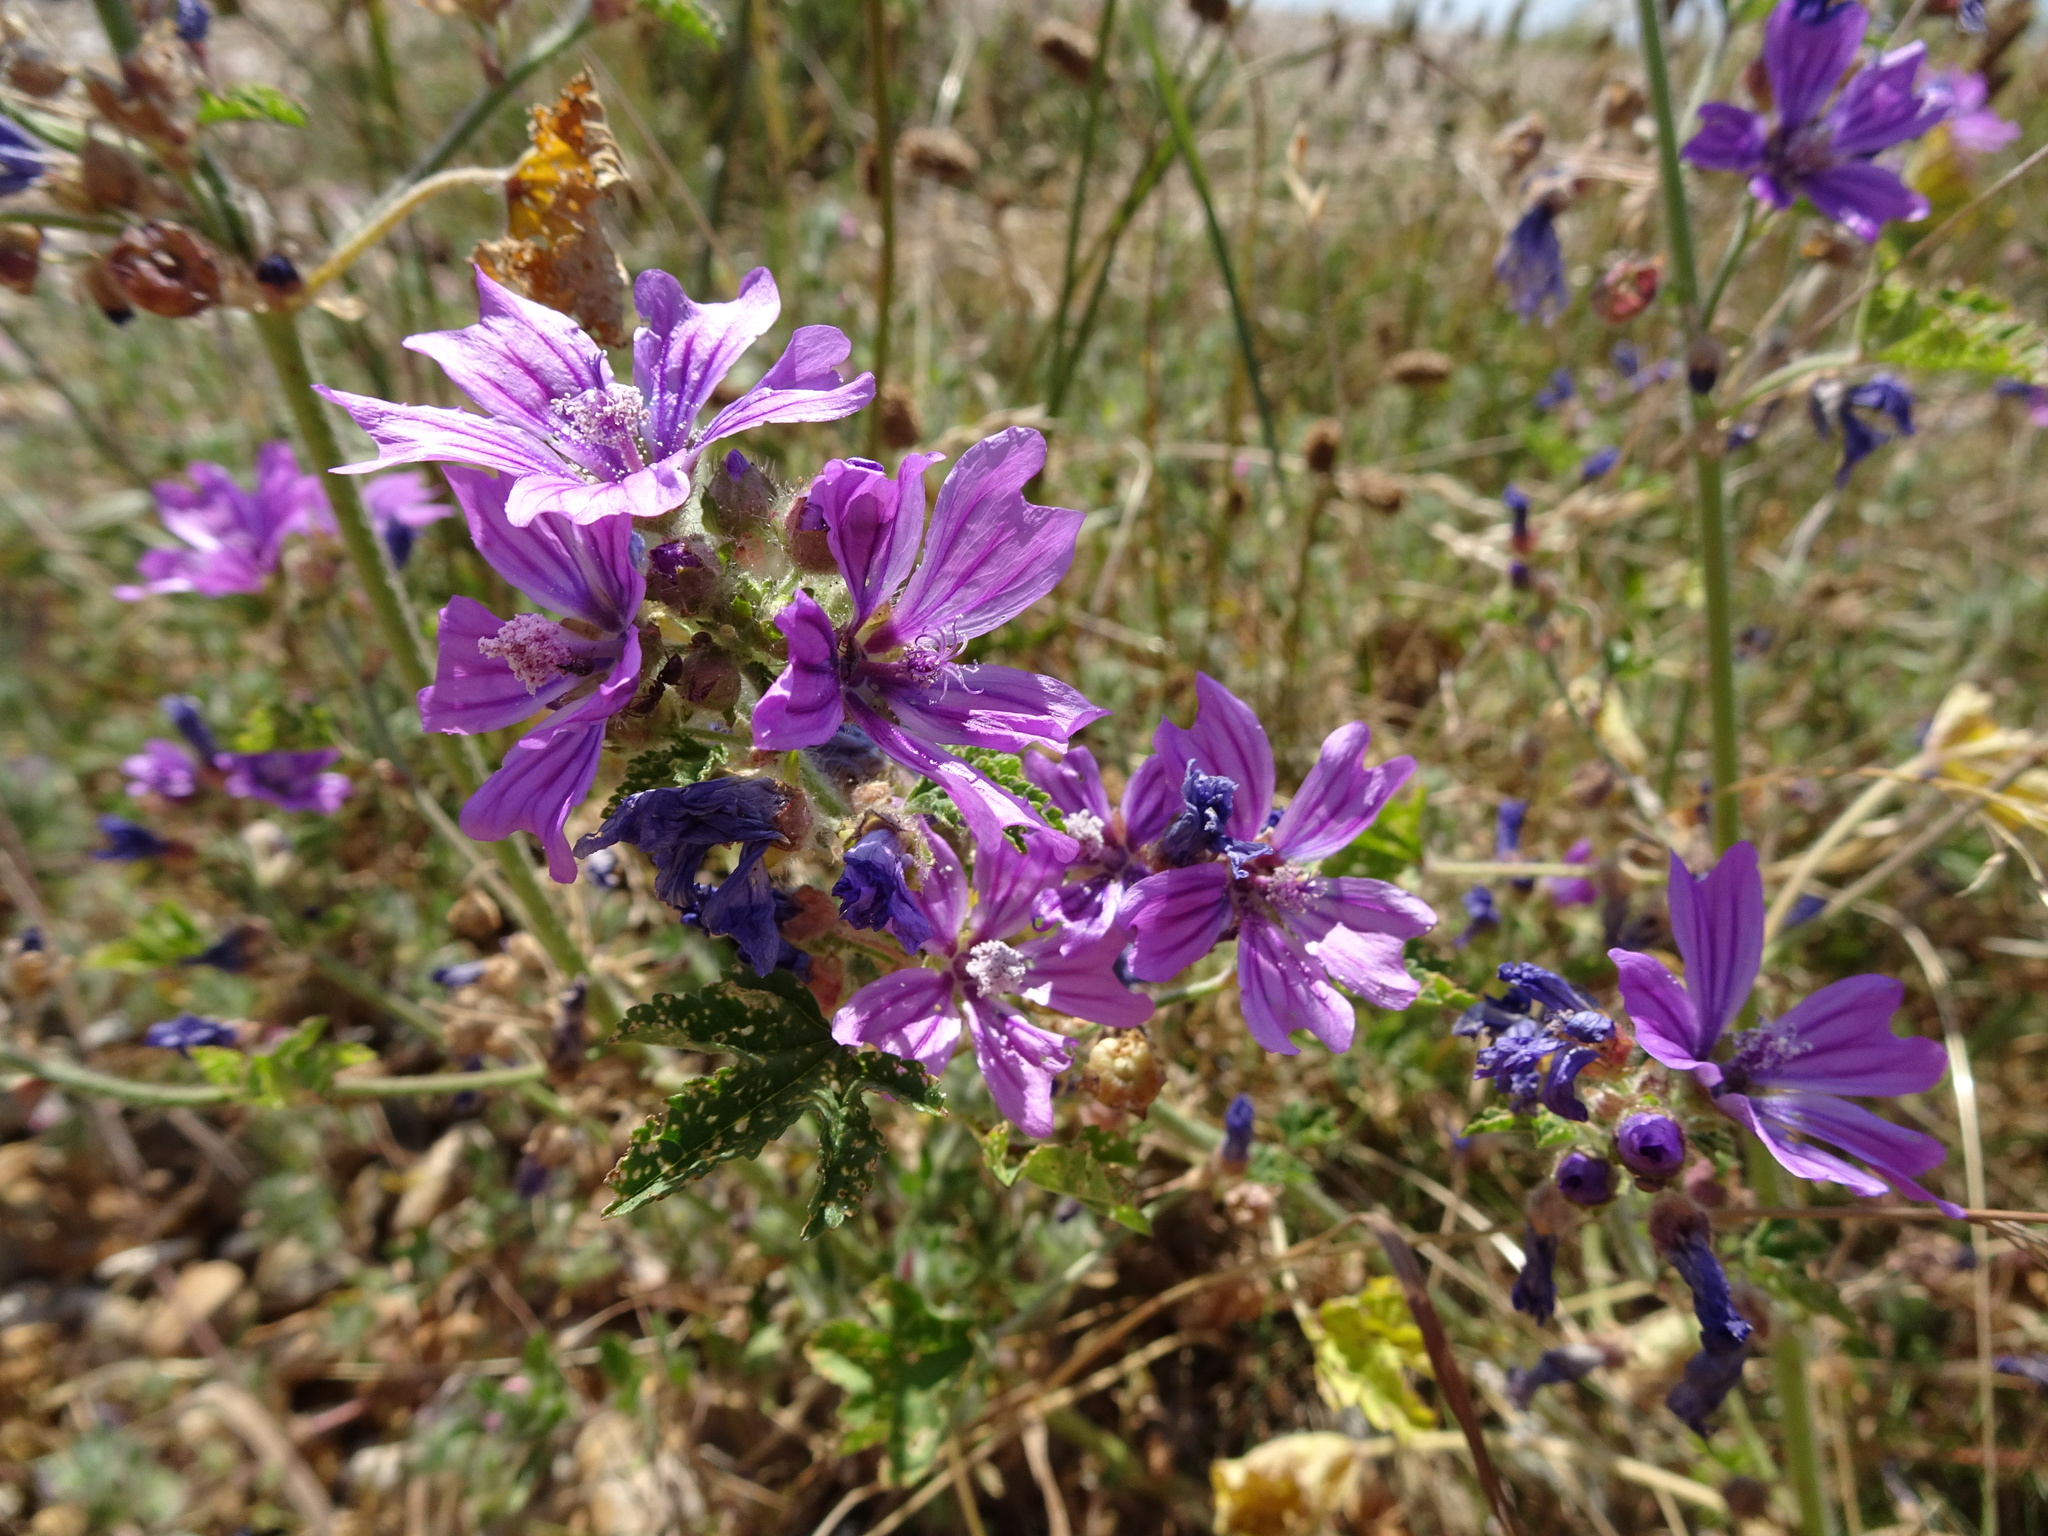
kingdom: Plantae
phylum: Tracheophyta
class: Magnoliopsida
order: Malvales
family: Malvaceae
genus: Malva
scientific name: Malva sylvestris
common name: Common mallow
